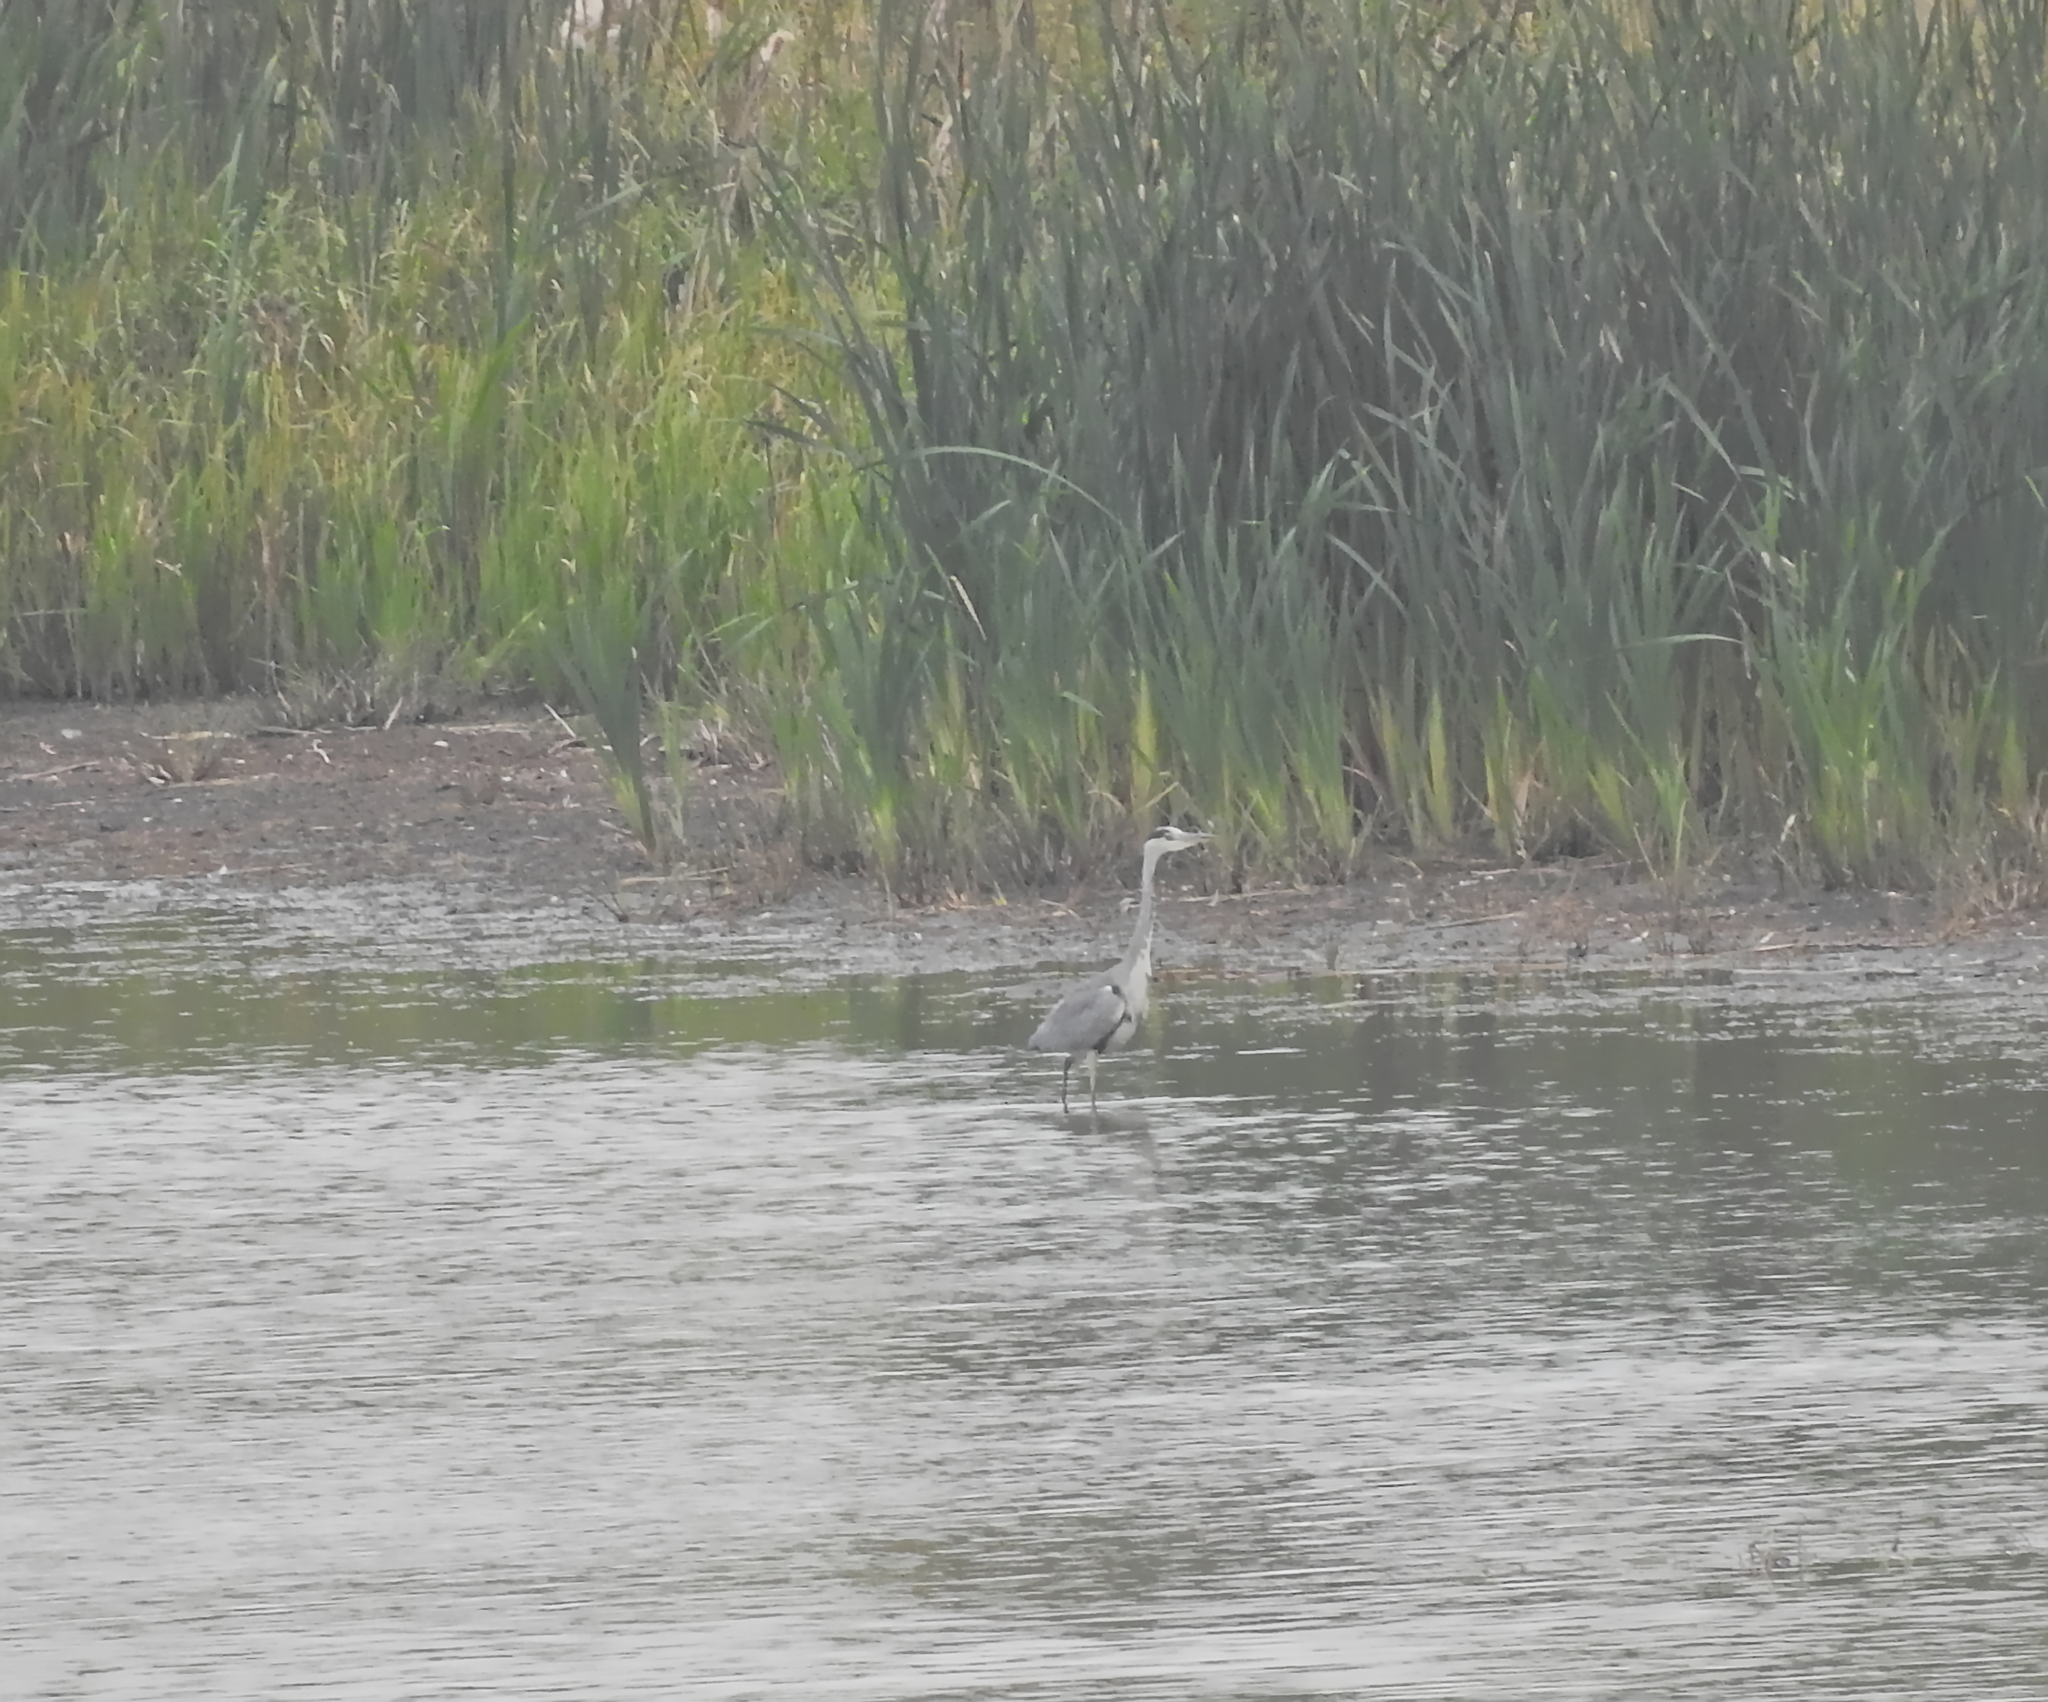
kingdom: Animalia
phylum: Chordata
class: Aves
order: Pelecaniformes
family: Ardeidae
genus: Ardea
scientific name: Ardea cinerea
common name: Grey heron
